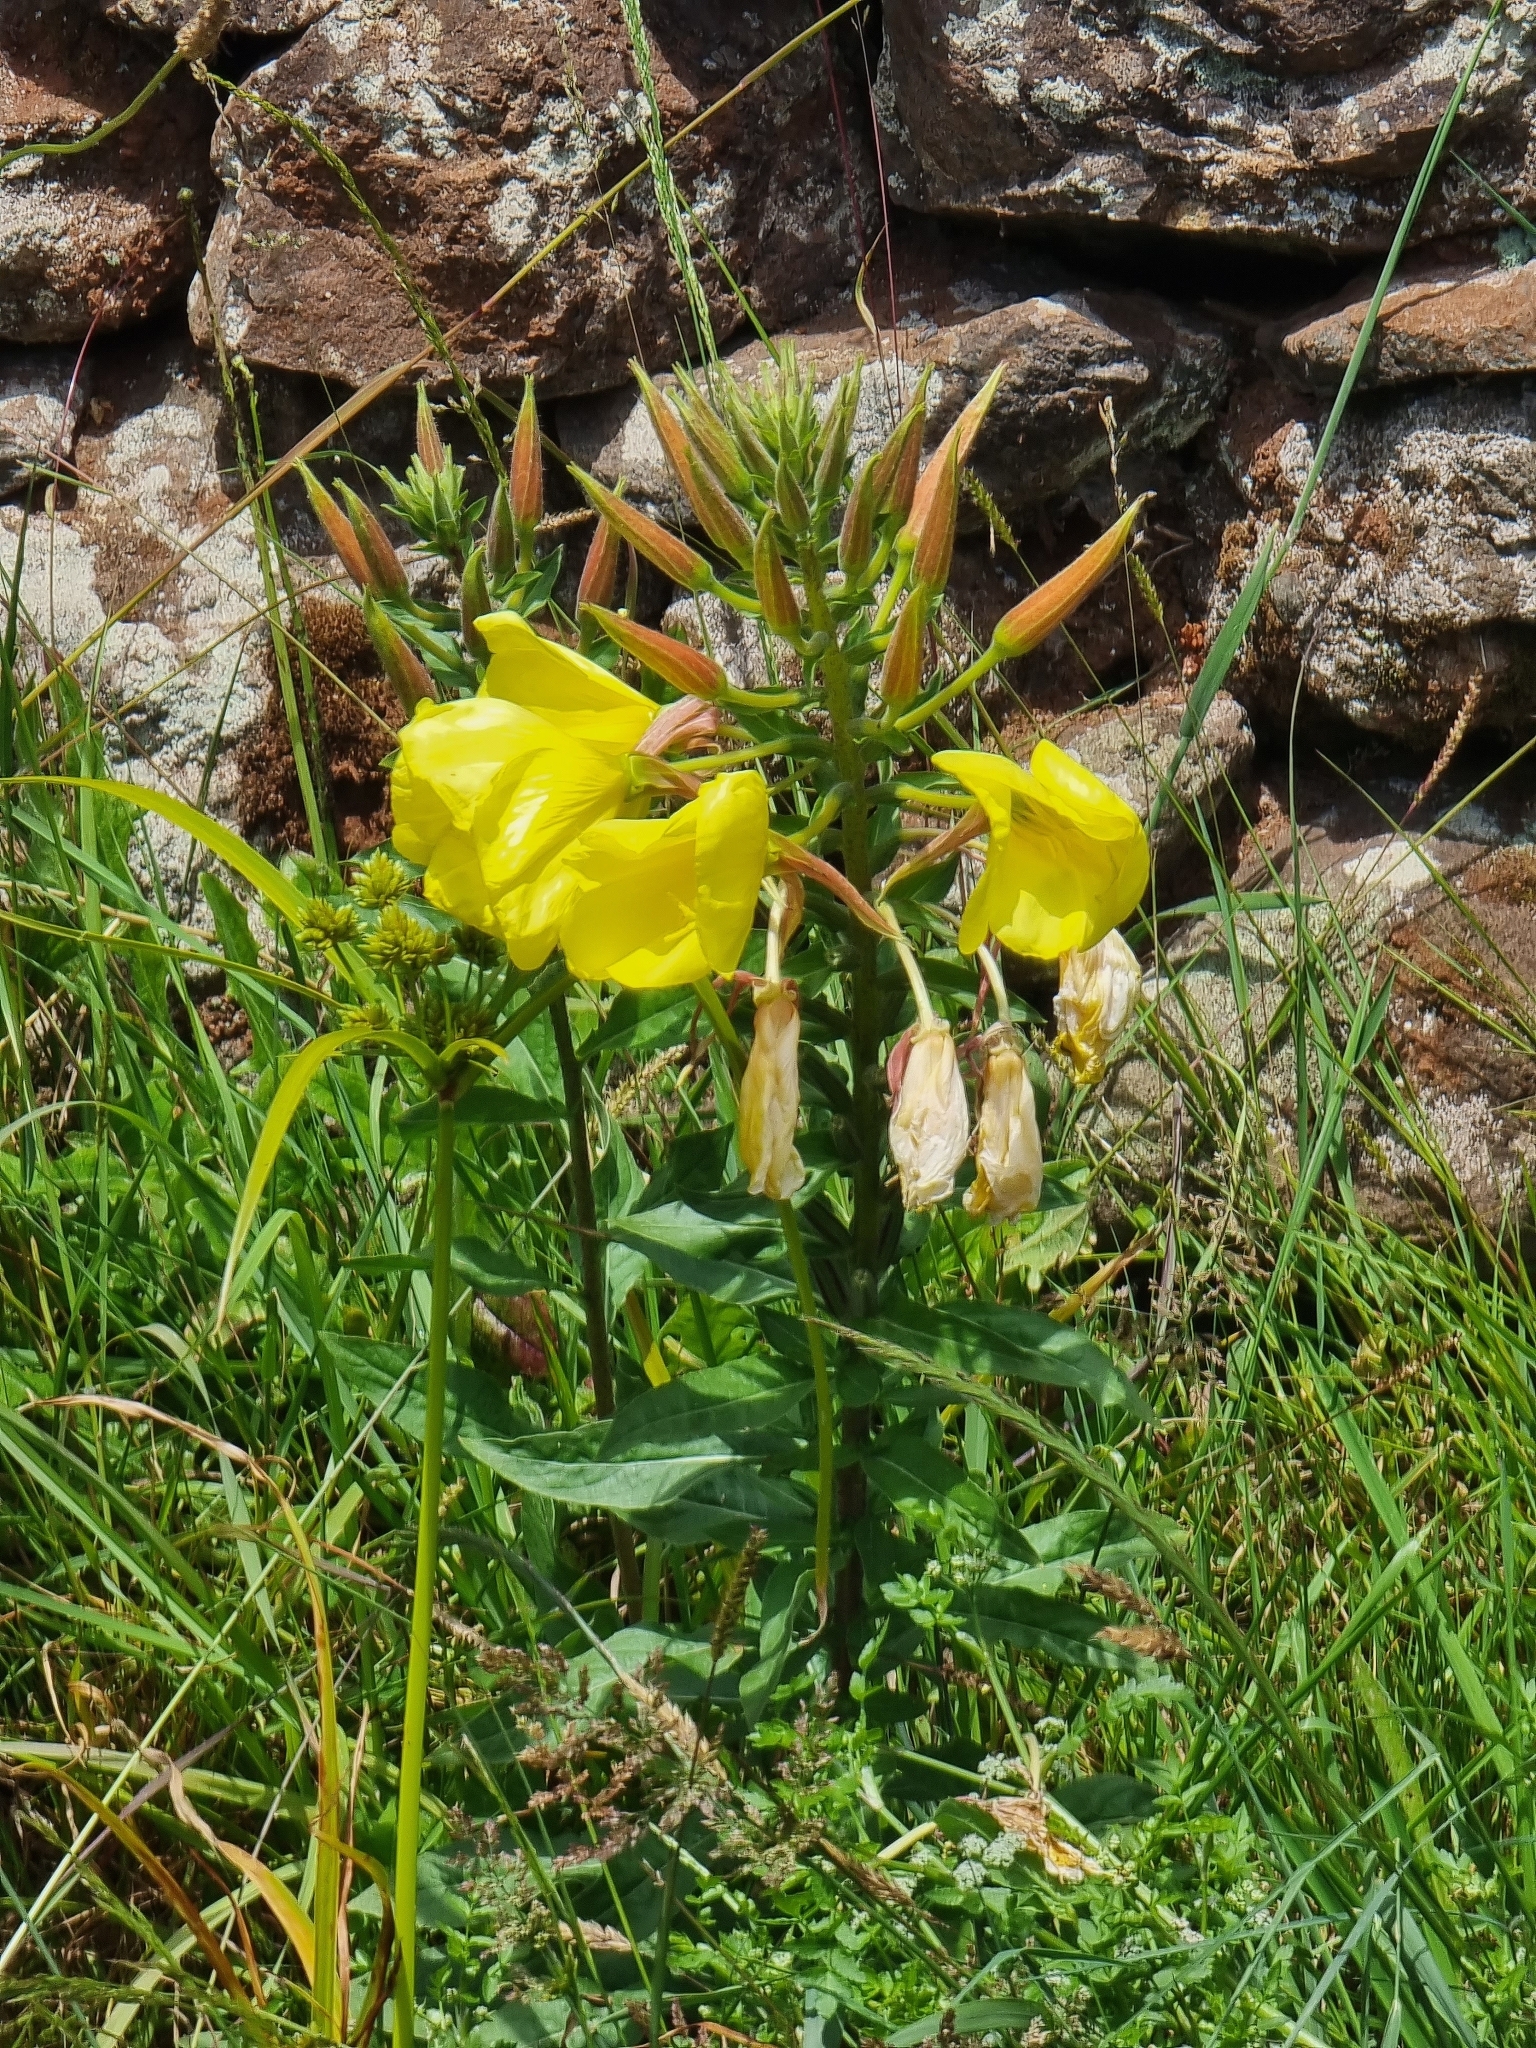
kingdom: Plantae
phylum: Tracheophyta
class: Magnoliopsida
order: Myrtales
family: Onagraceae
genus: Oenothera
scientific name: Oenothera glazioviana
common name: Large-flowered evening-primrose
